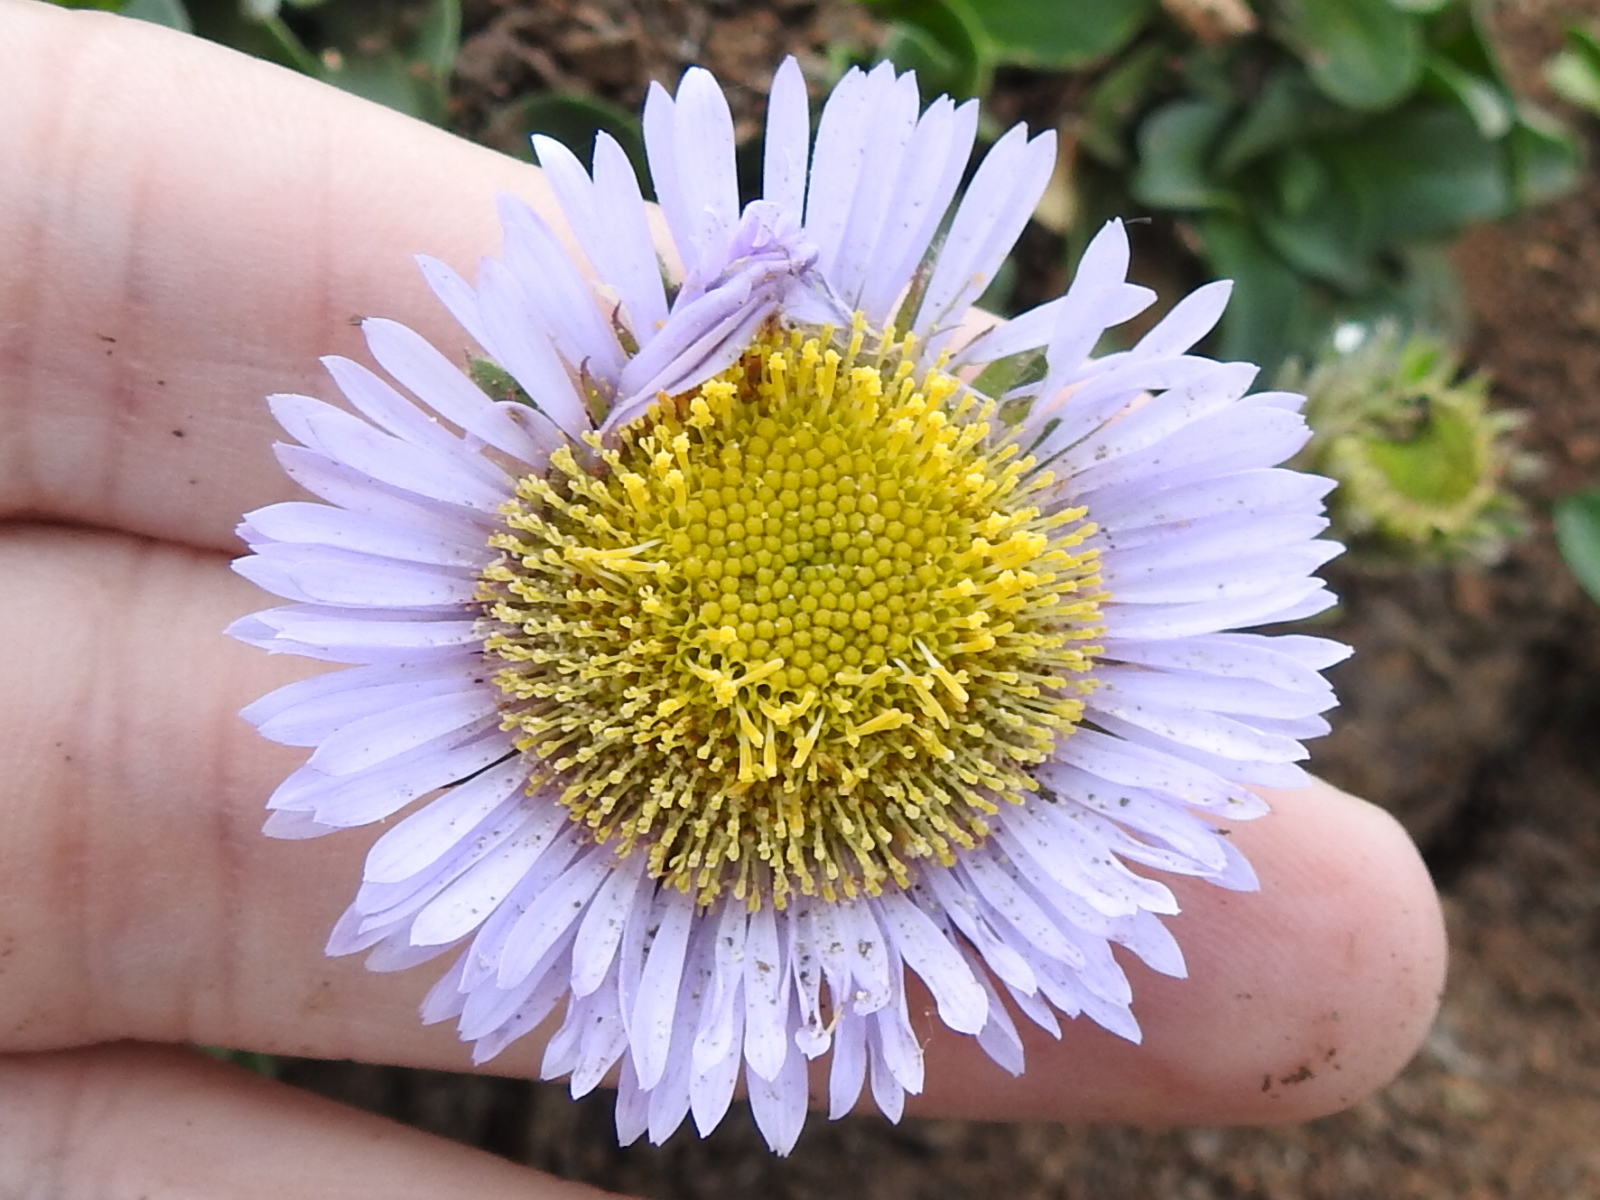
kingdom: Plantae
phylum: Tracheophyta
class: Magnoliopsida
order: Asterales
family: Asteraceae
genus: Erigeron
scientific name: Erigeron glaucus
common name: Seaside daisy
